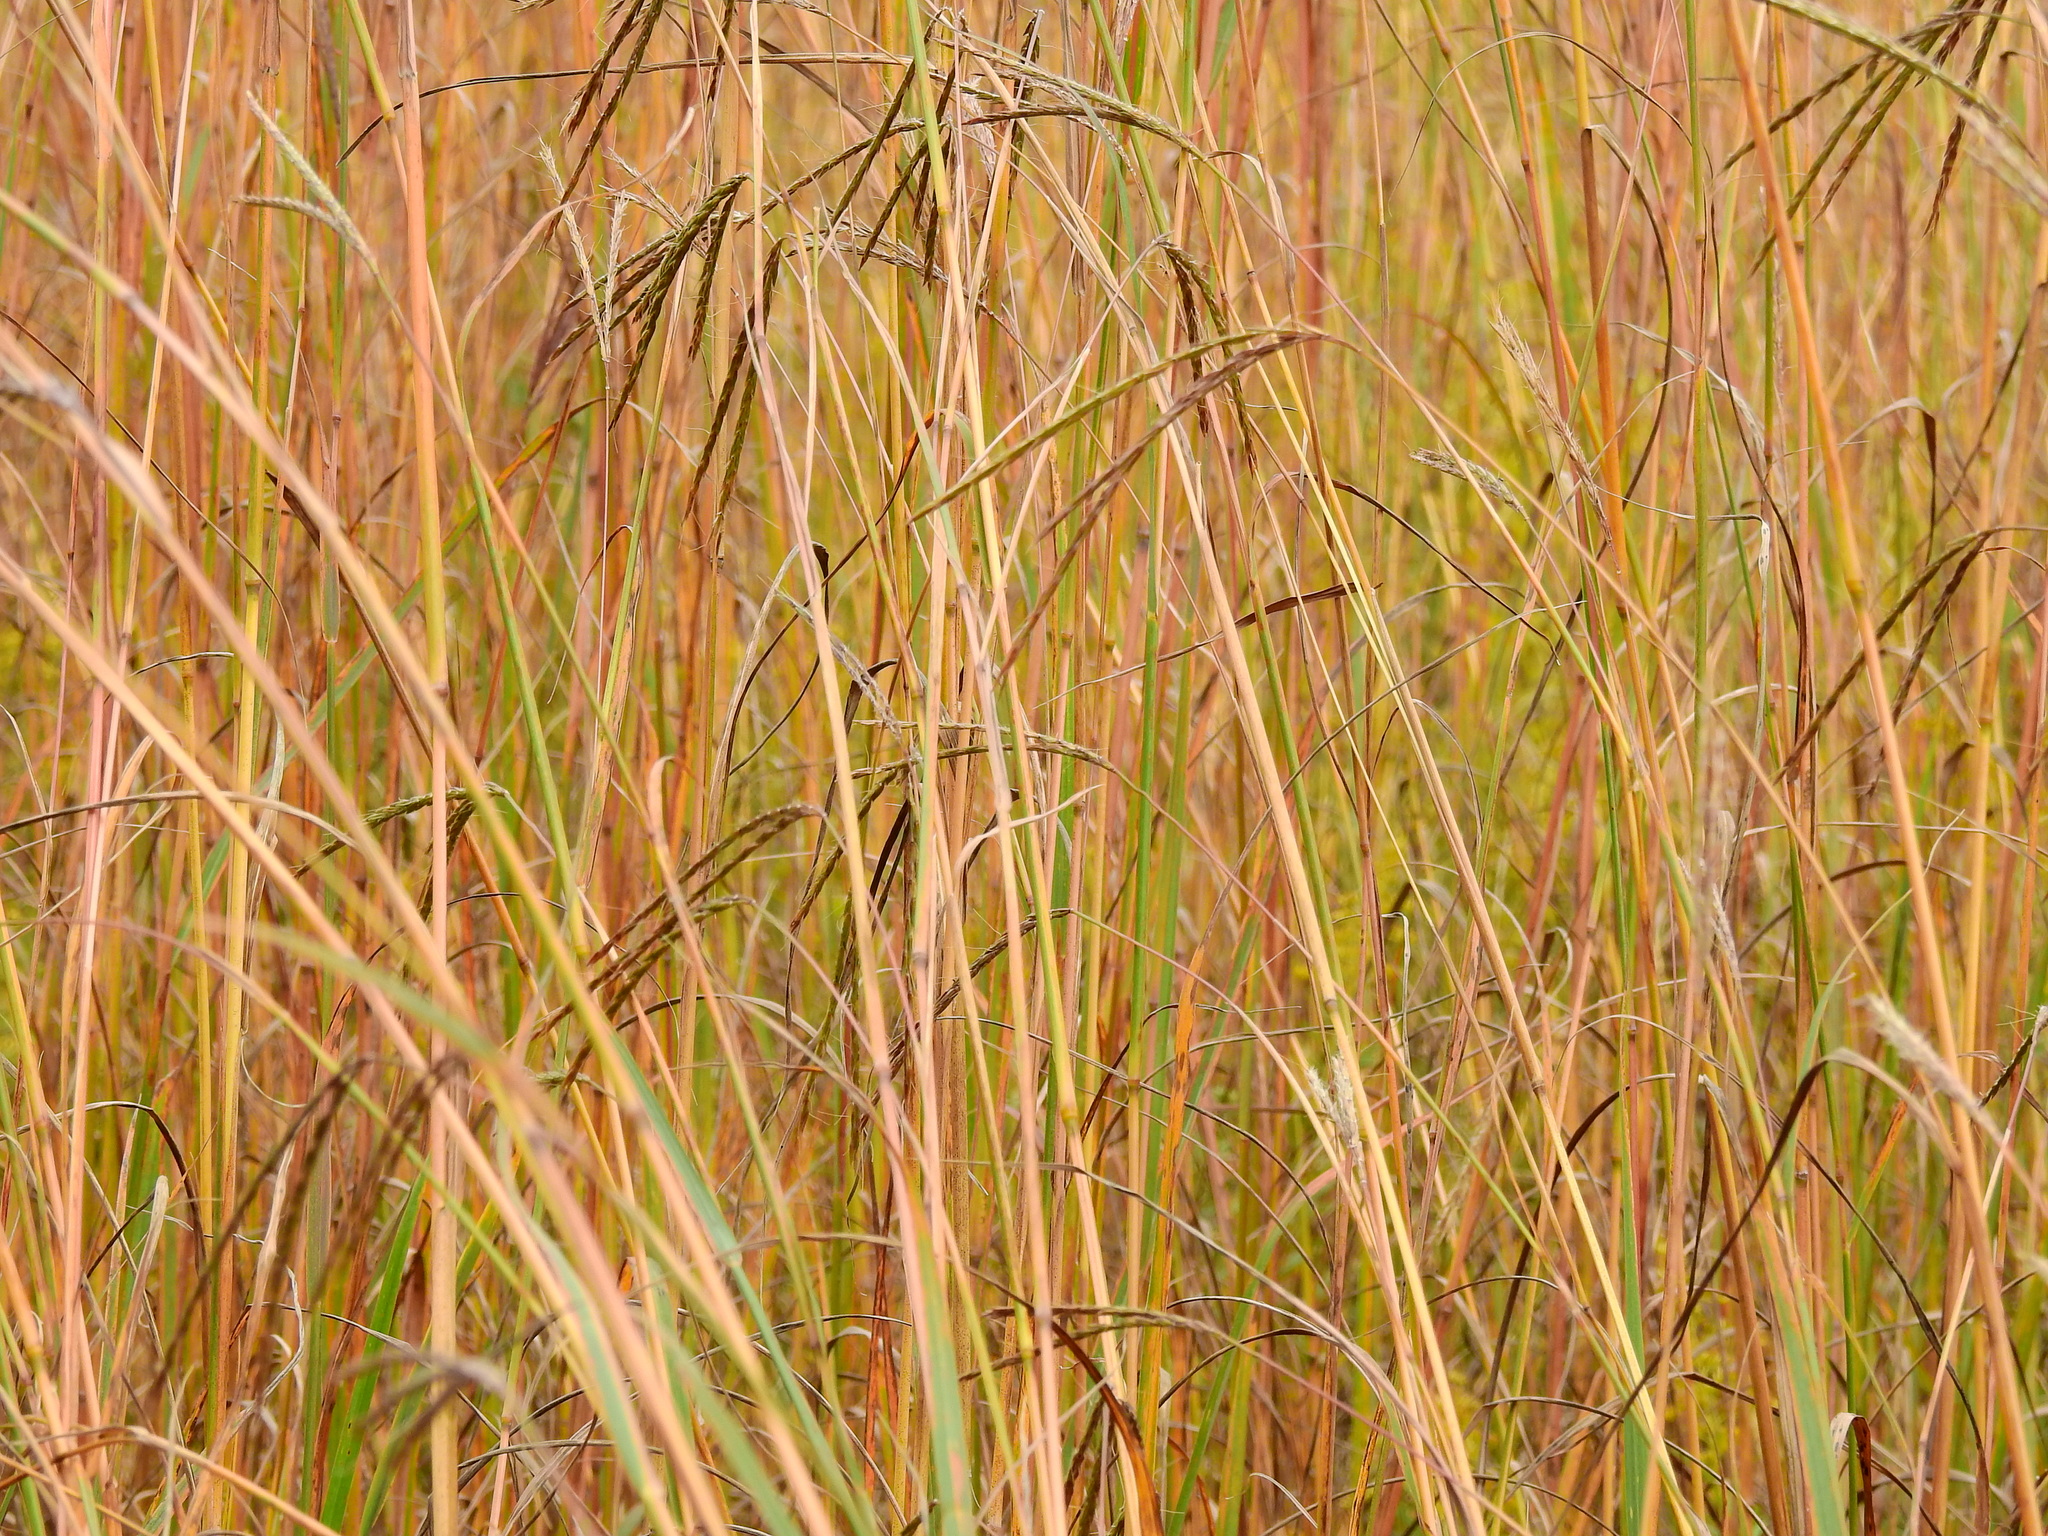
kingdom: Plantae
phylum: Tracheophyta
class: Liliopsida
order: Poales
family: Poaceae
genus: Andropogon
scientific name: Andropogon gerardi
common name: Big bluestem
